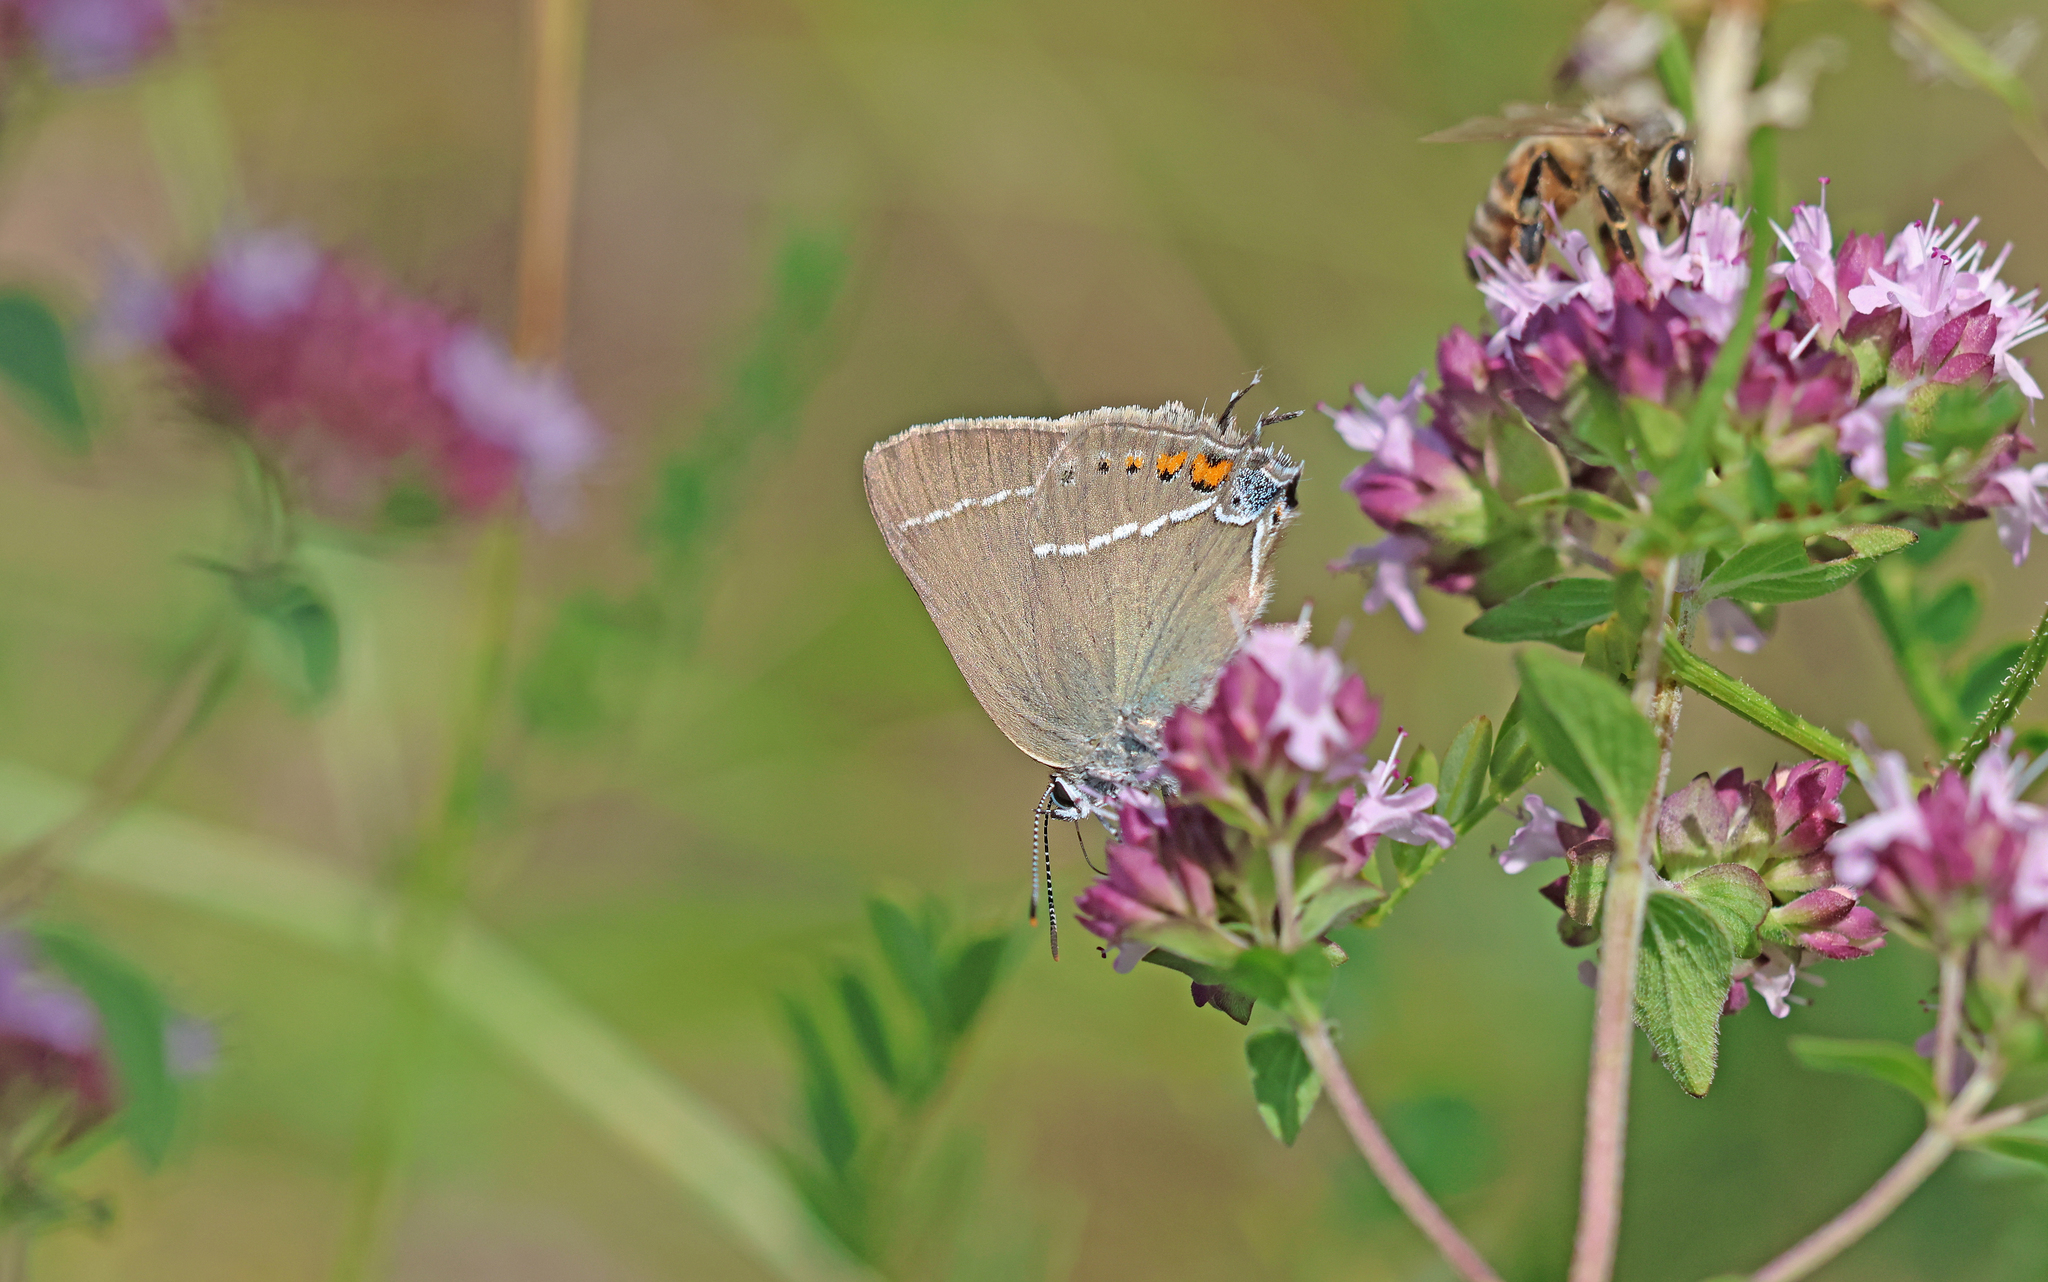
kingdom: Animalia
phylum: Arthropoda
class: Insecta
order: Lepidoptera
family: Lycaenidae
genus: Tuttiola
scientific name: Tuttiola spini
